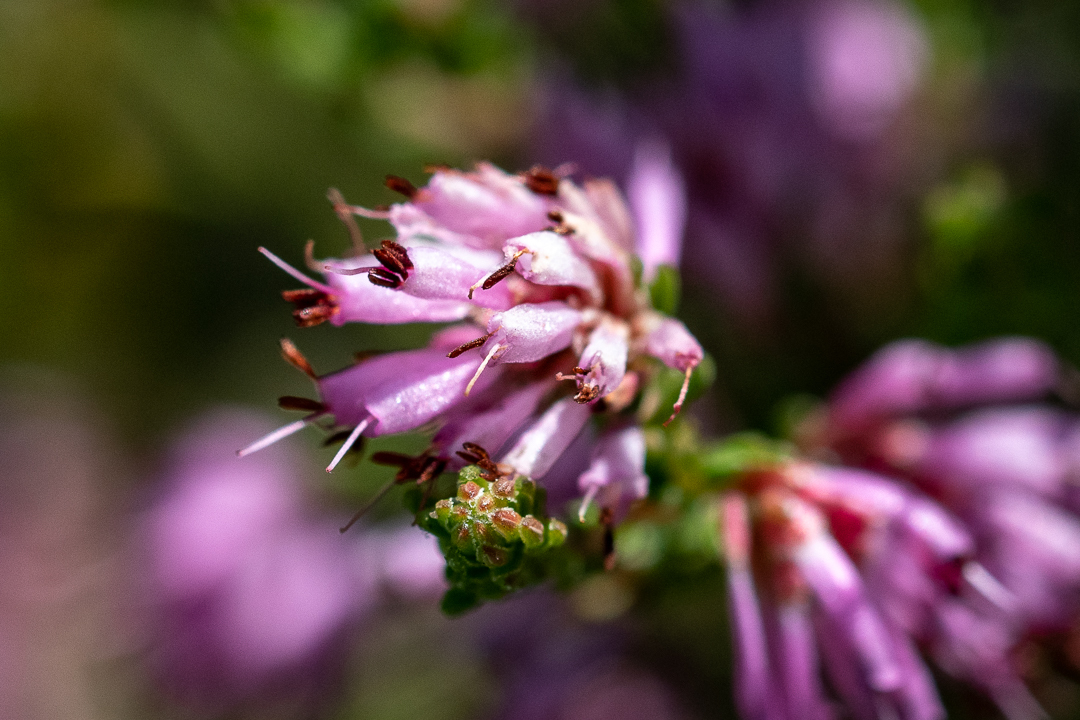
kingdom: Plantae
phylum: Tracheophyta
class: Magnoliopsida
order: Ericales
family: Ericaceae
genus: Erica
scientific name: Erica labialis
